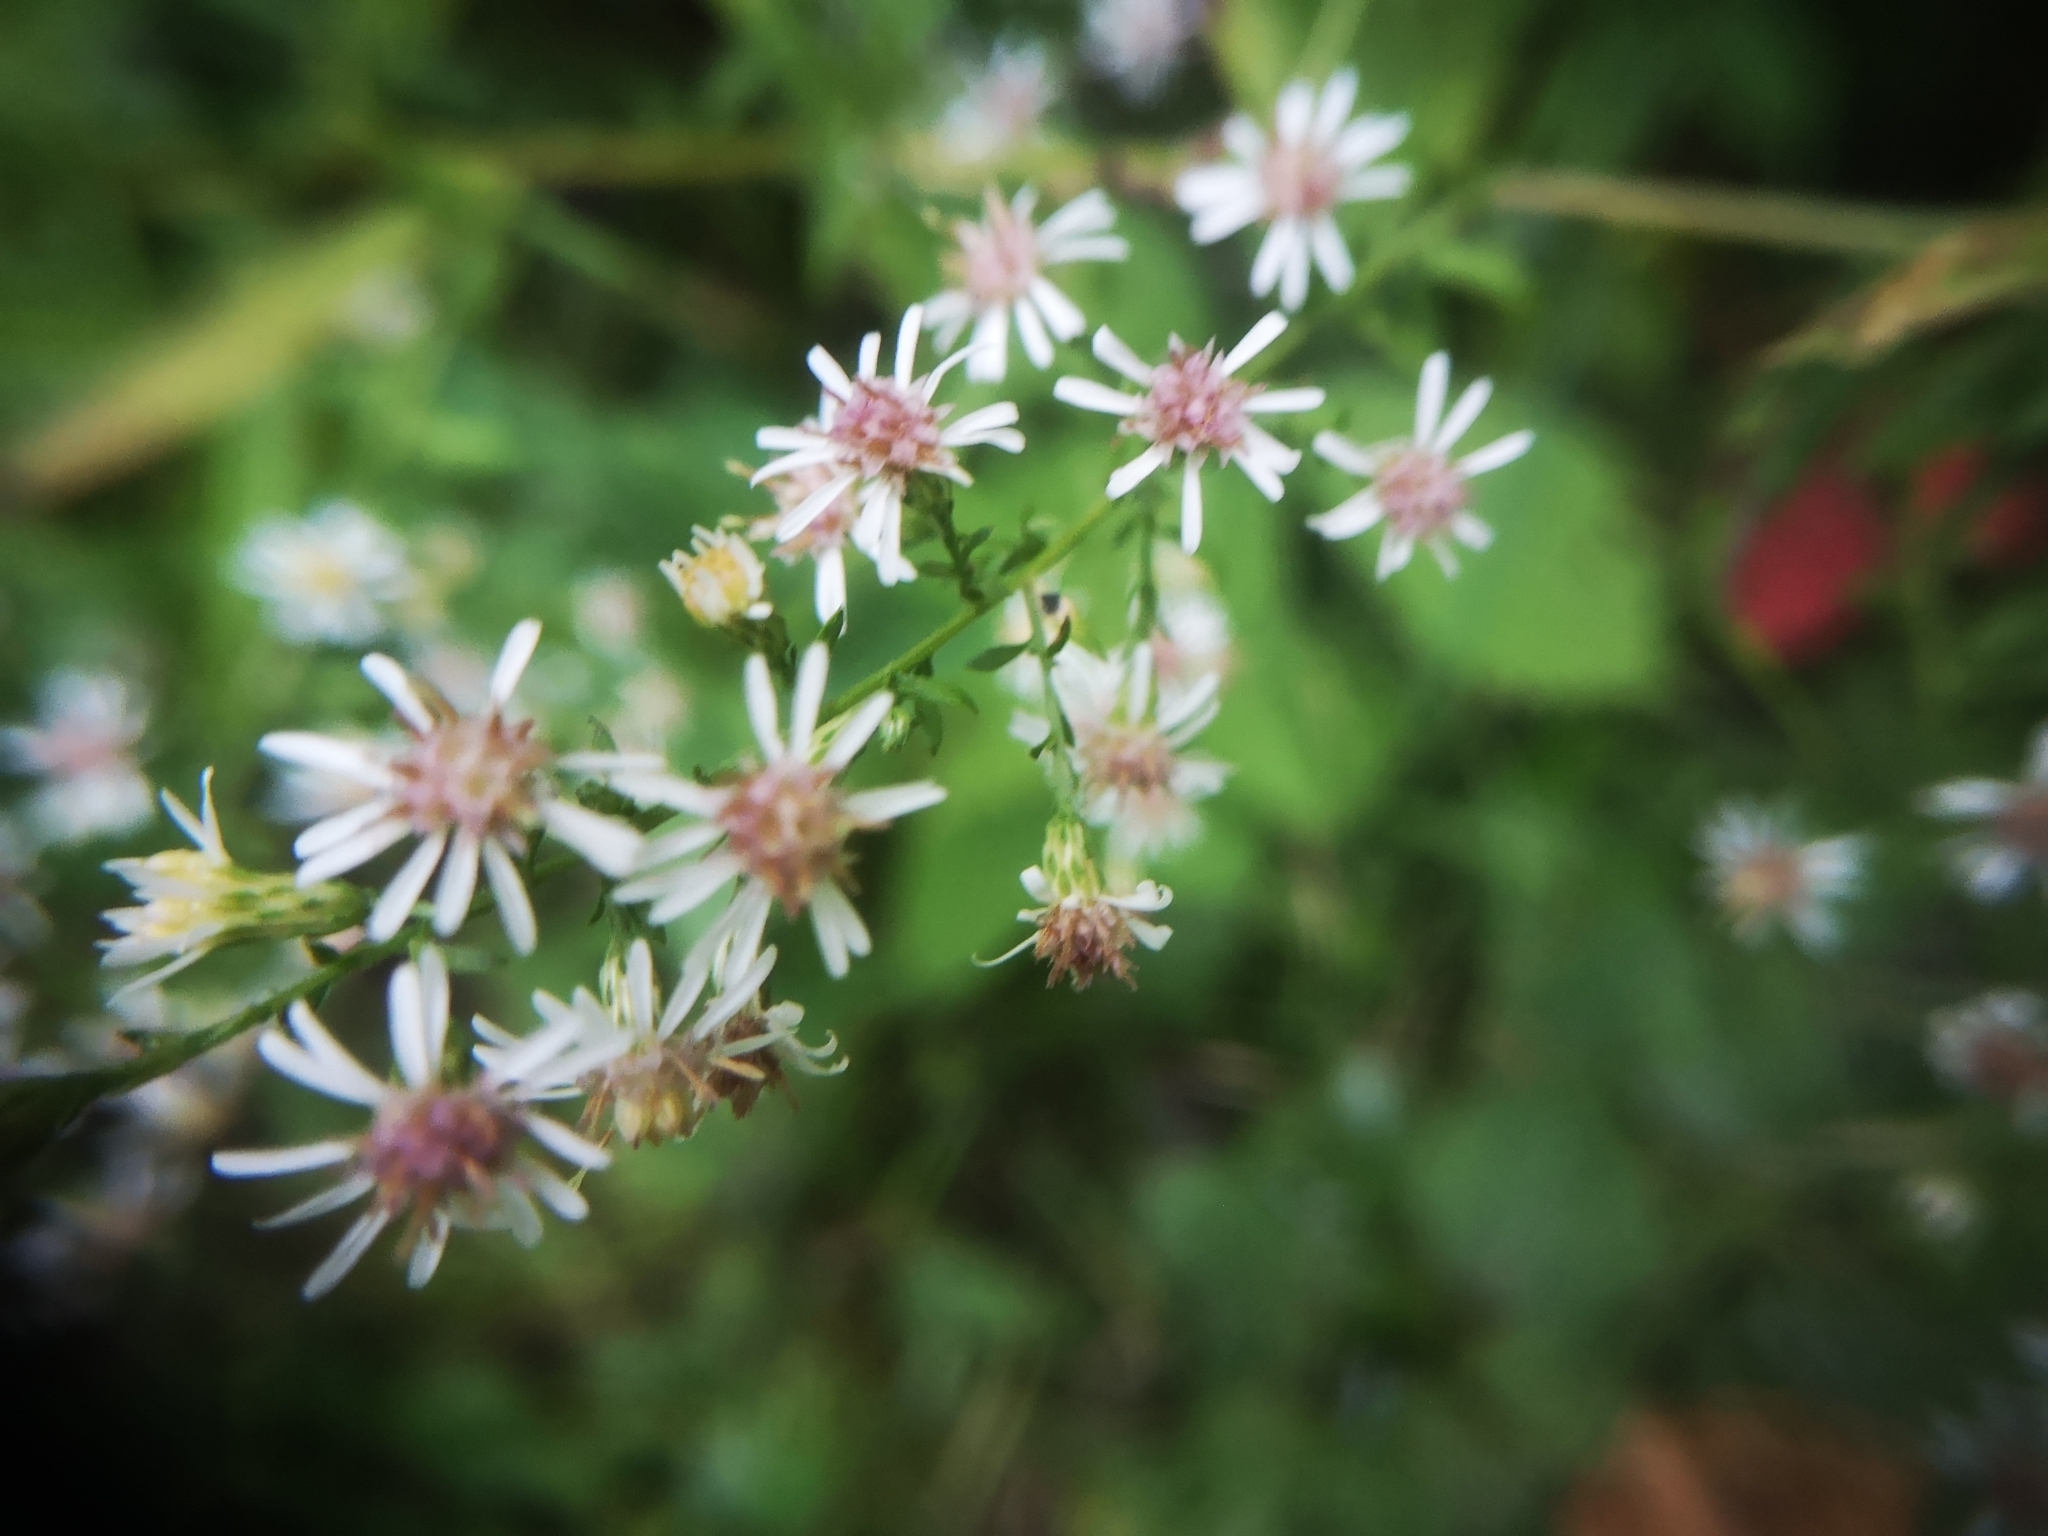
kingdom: Plantae
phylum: Tracheophyta
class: Magnoliopsida
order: Asterales
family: Asteraceae
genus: Symphyotrichum
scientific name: Symphyotrichum lateriflorum
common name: Calico aster
